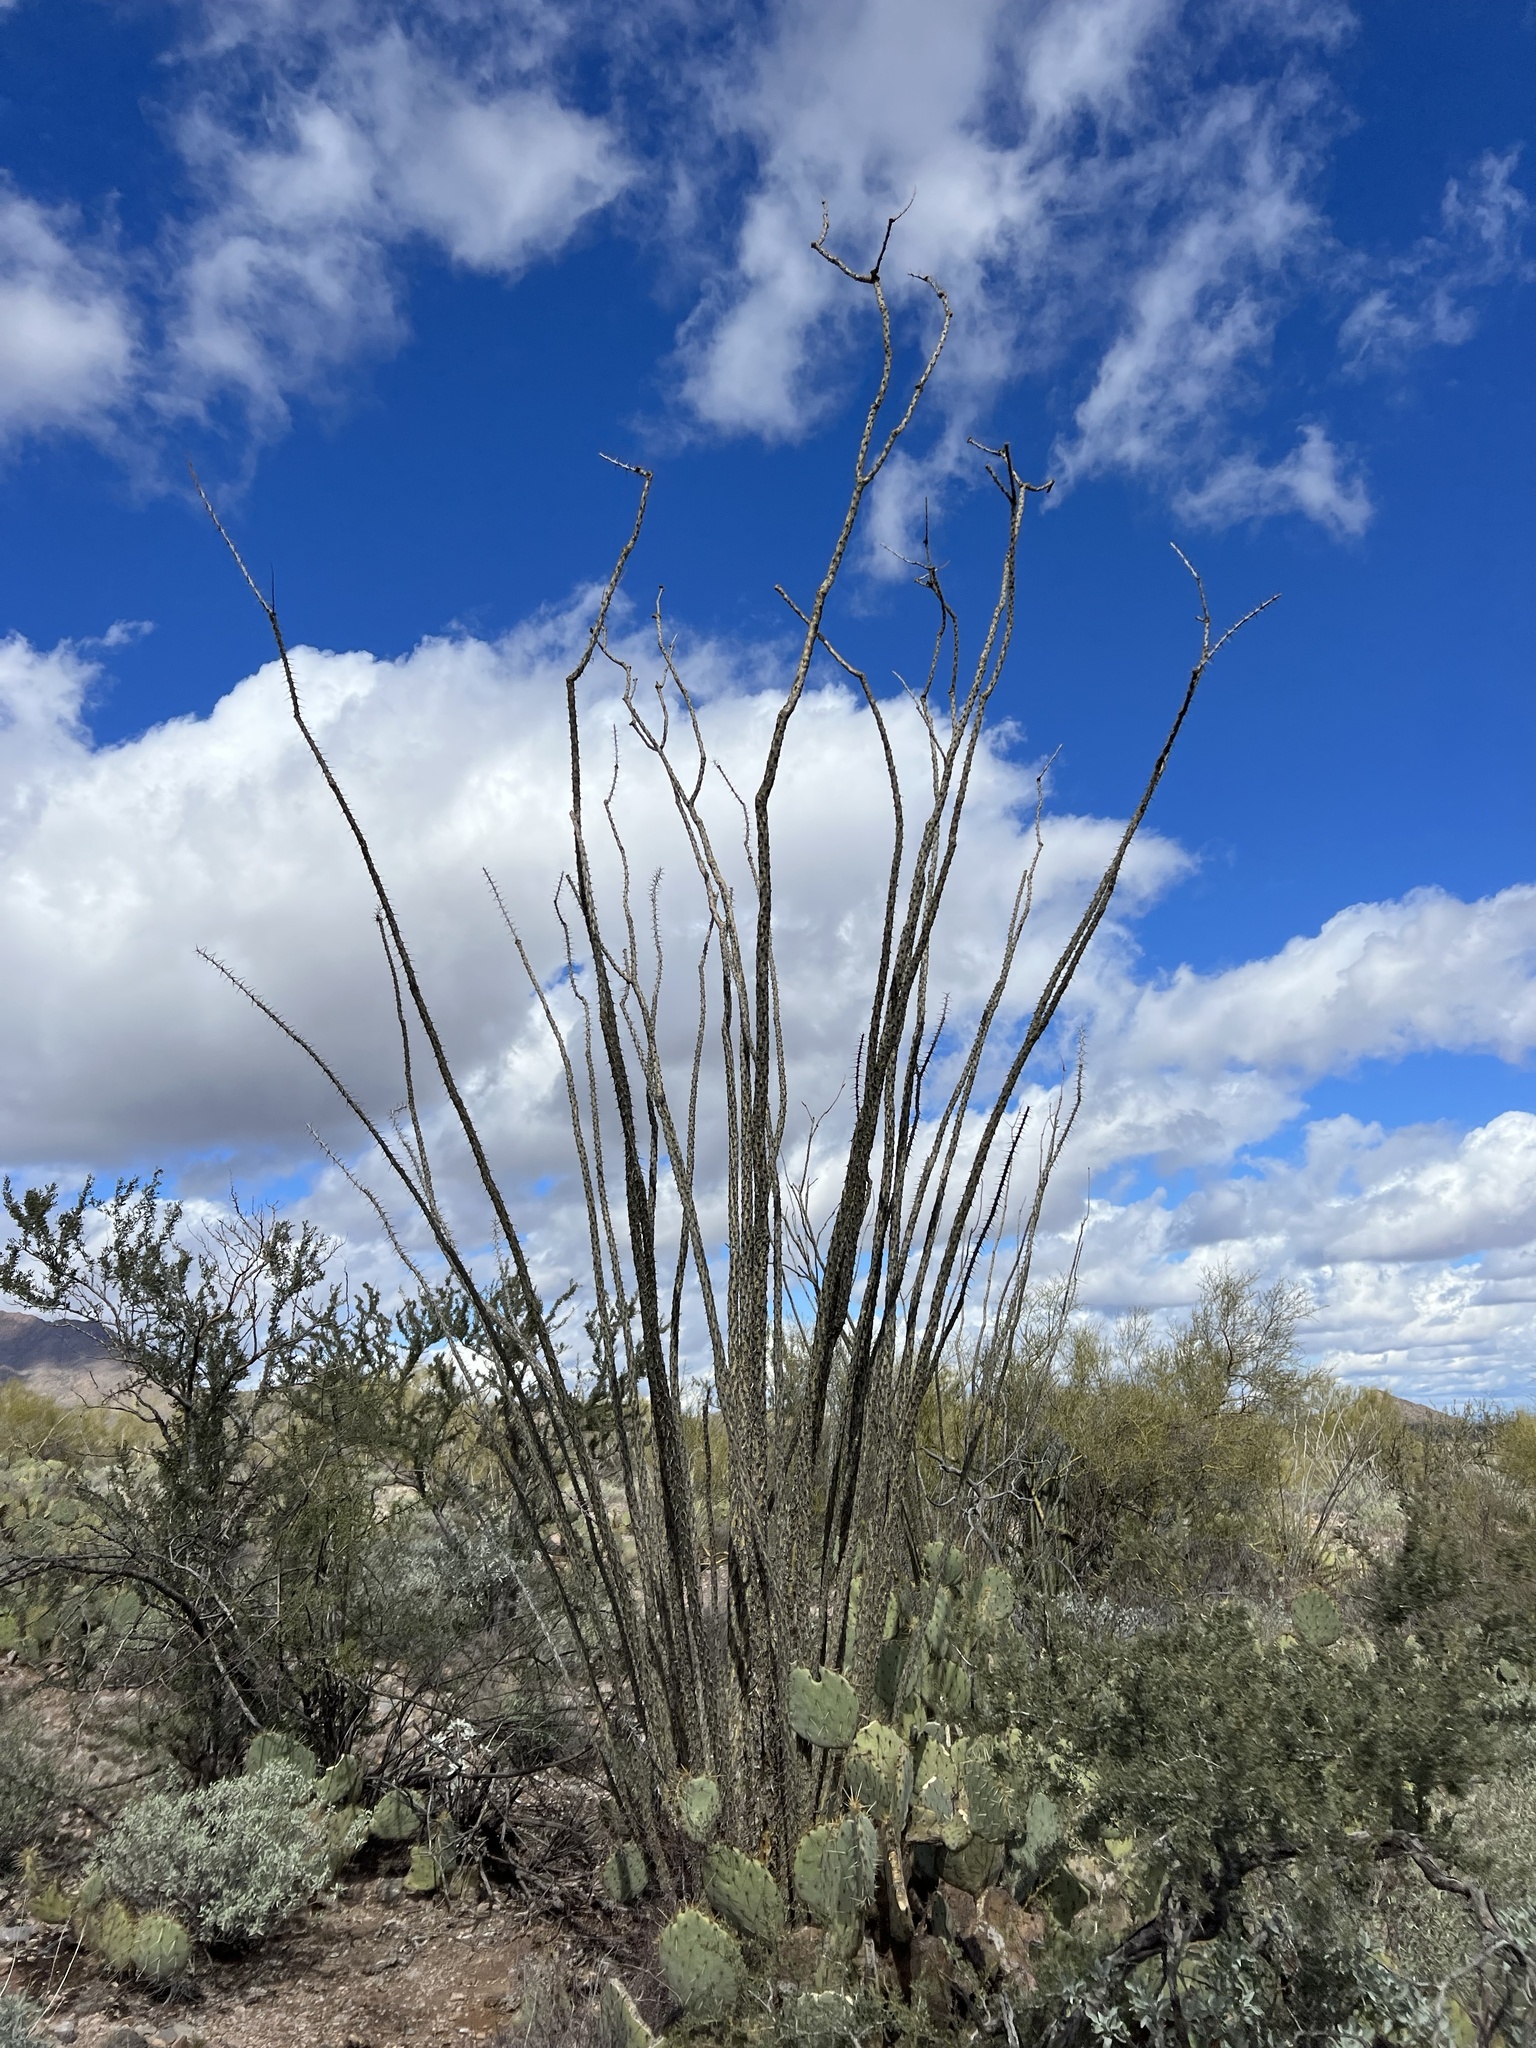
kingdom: Plantae
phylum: Tracheophyta
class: Magnoliopsida
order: Ericales
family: Fouquieriaceae
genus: Fouquieria
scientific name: Fouquieria splendens
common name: Vine-cactus
